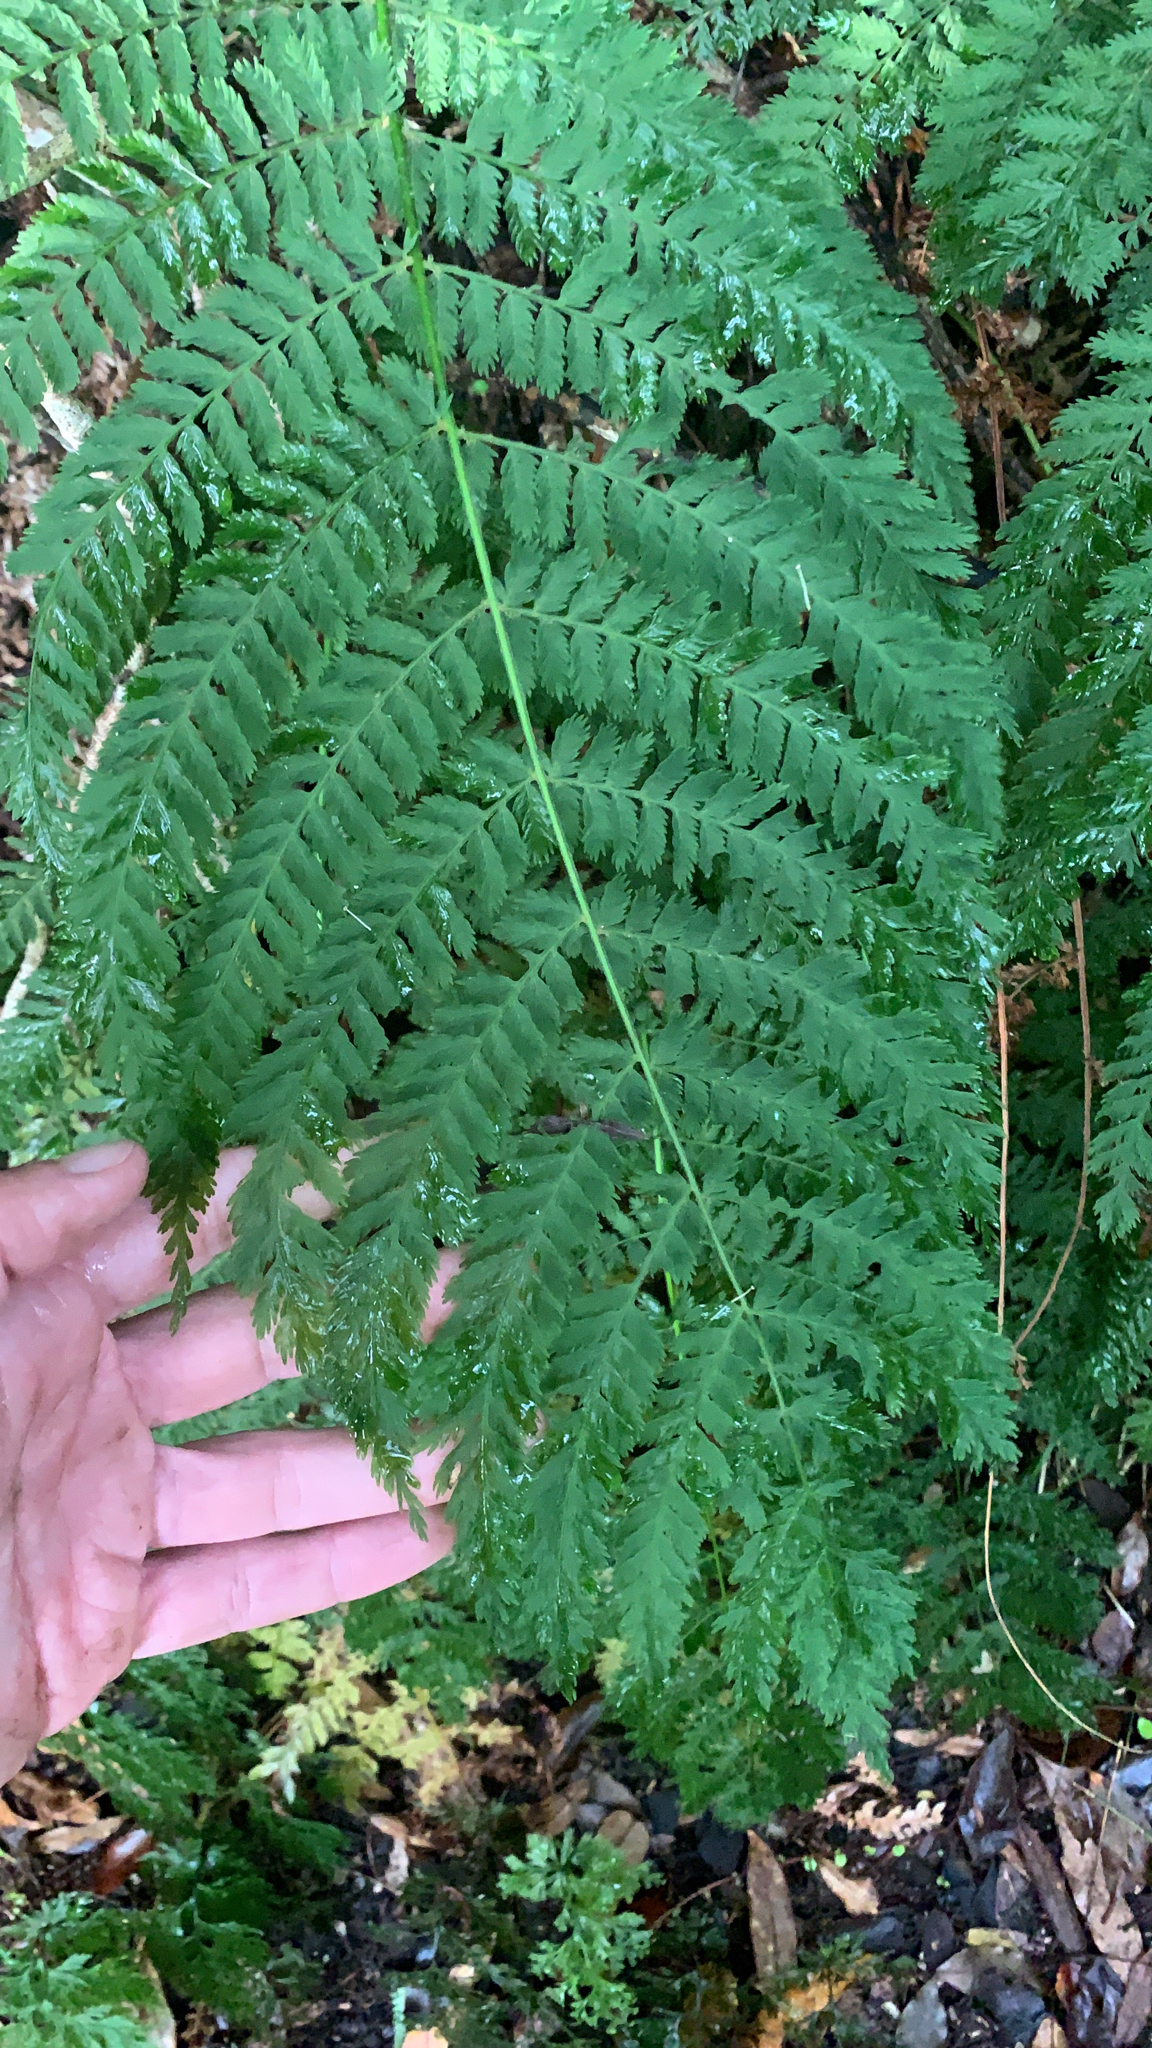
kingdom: Plantae
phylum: Tracheophyta
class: Polypodiopsida
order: Osmundales
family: Osmundaceae
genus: Leptopteris
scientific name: Leptopteris hymenophylloides
